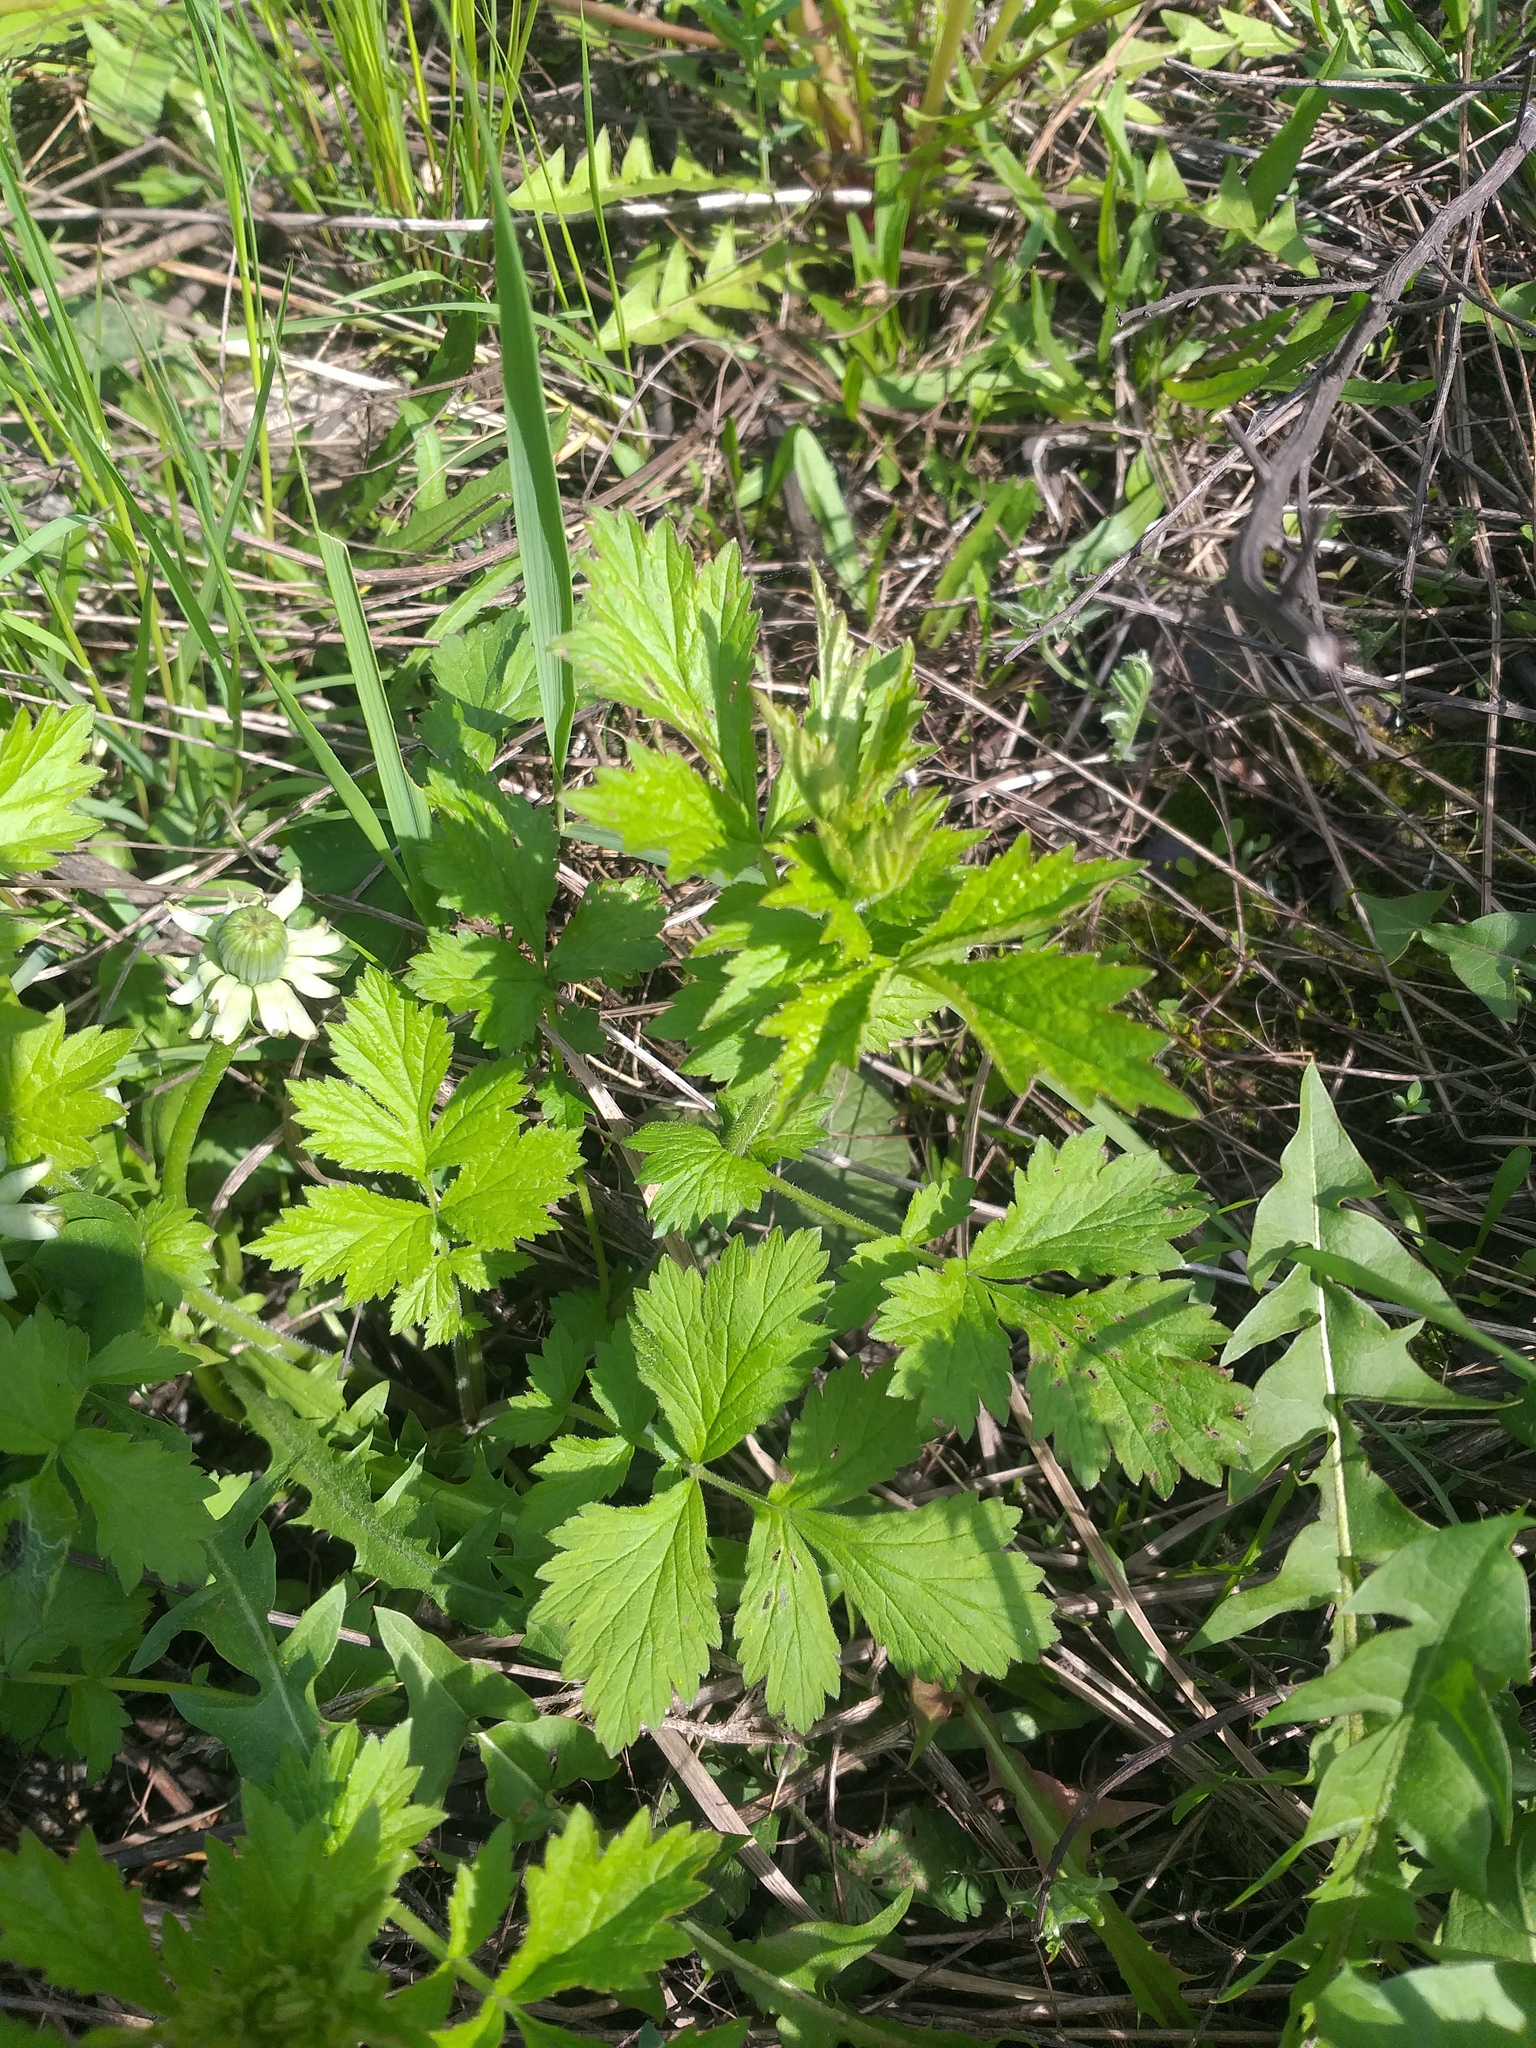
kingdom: Plantae
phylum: Tracheophyta
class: Magnoliopsida
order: Rosales
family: Rosaceae
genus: Geum
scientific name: Geum urbanum
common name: Wood avens
